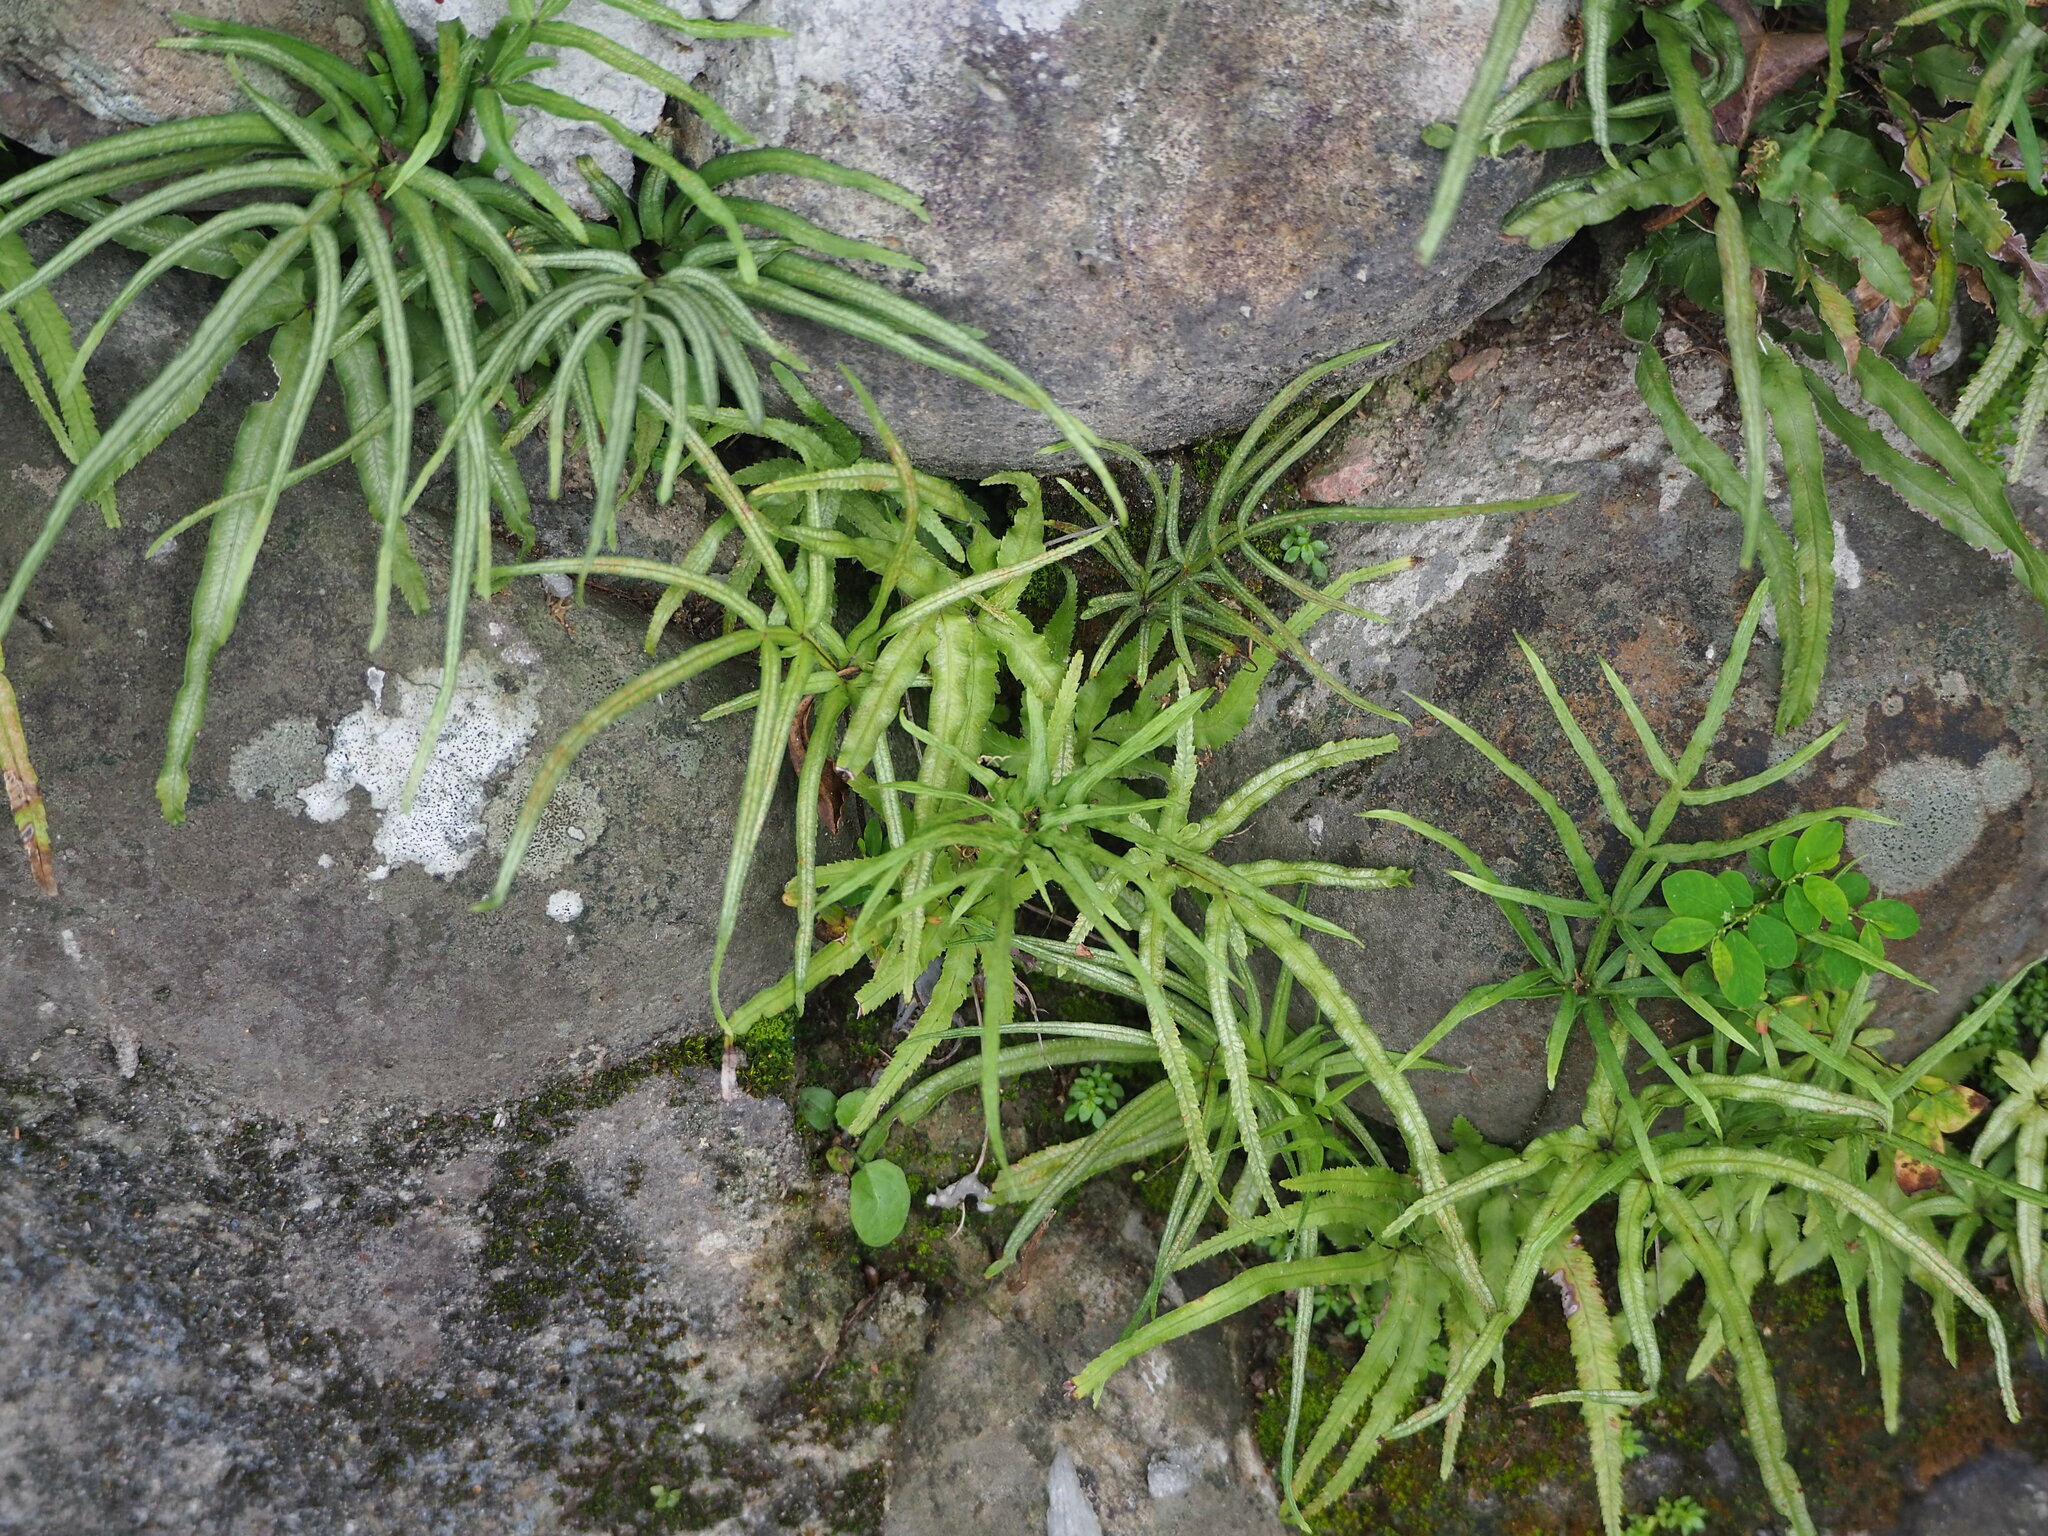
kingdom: Plantae
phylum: Tracheophyta
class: Polypodiopsida
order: Polypodiales
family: Pteridaceae
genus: Pteris
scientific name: Pteris multifida
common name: Spider brake
